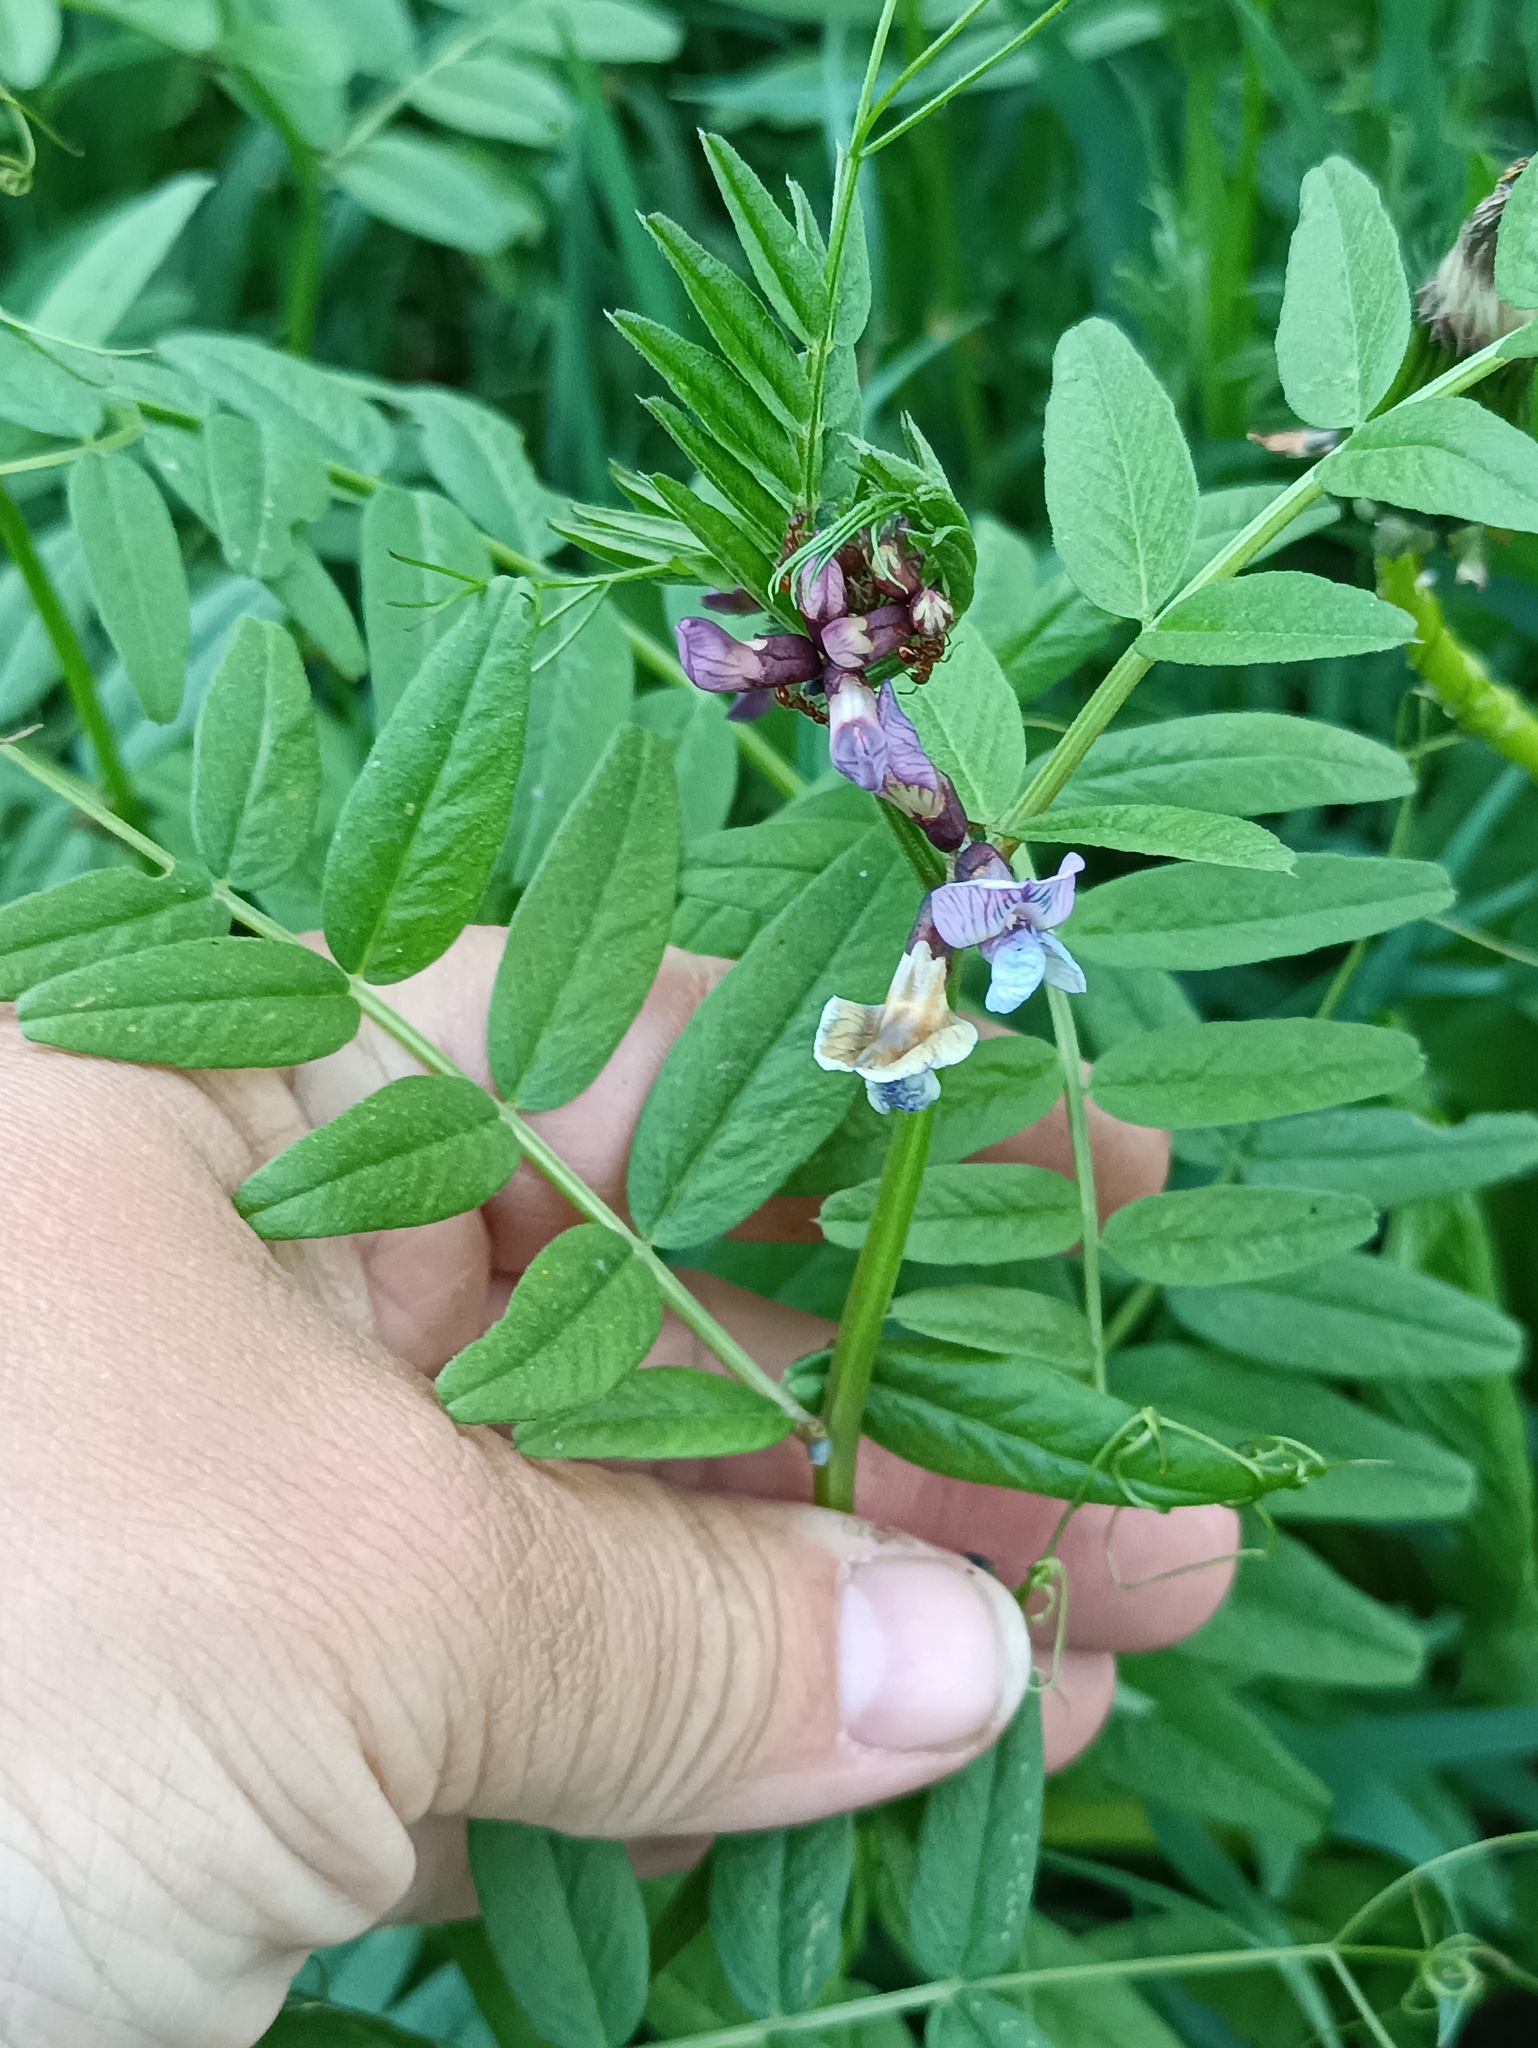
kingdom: Plantae
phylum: Tracheophyta
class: Magnoliopsida
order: Fabales
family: Fabaceae
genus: Vicia
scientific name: Vicia sepium
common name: Bush vetch
